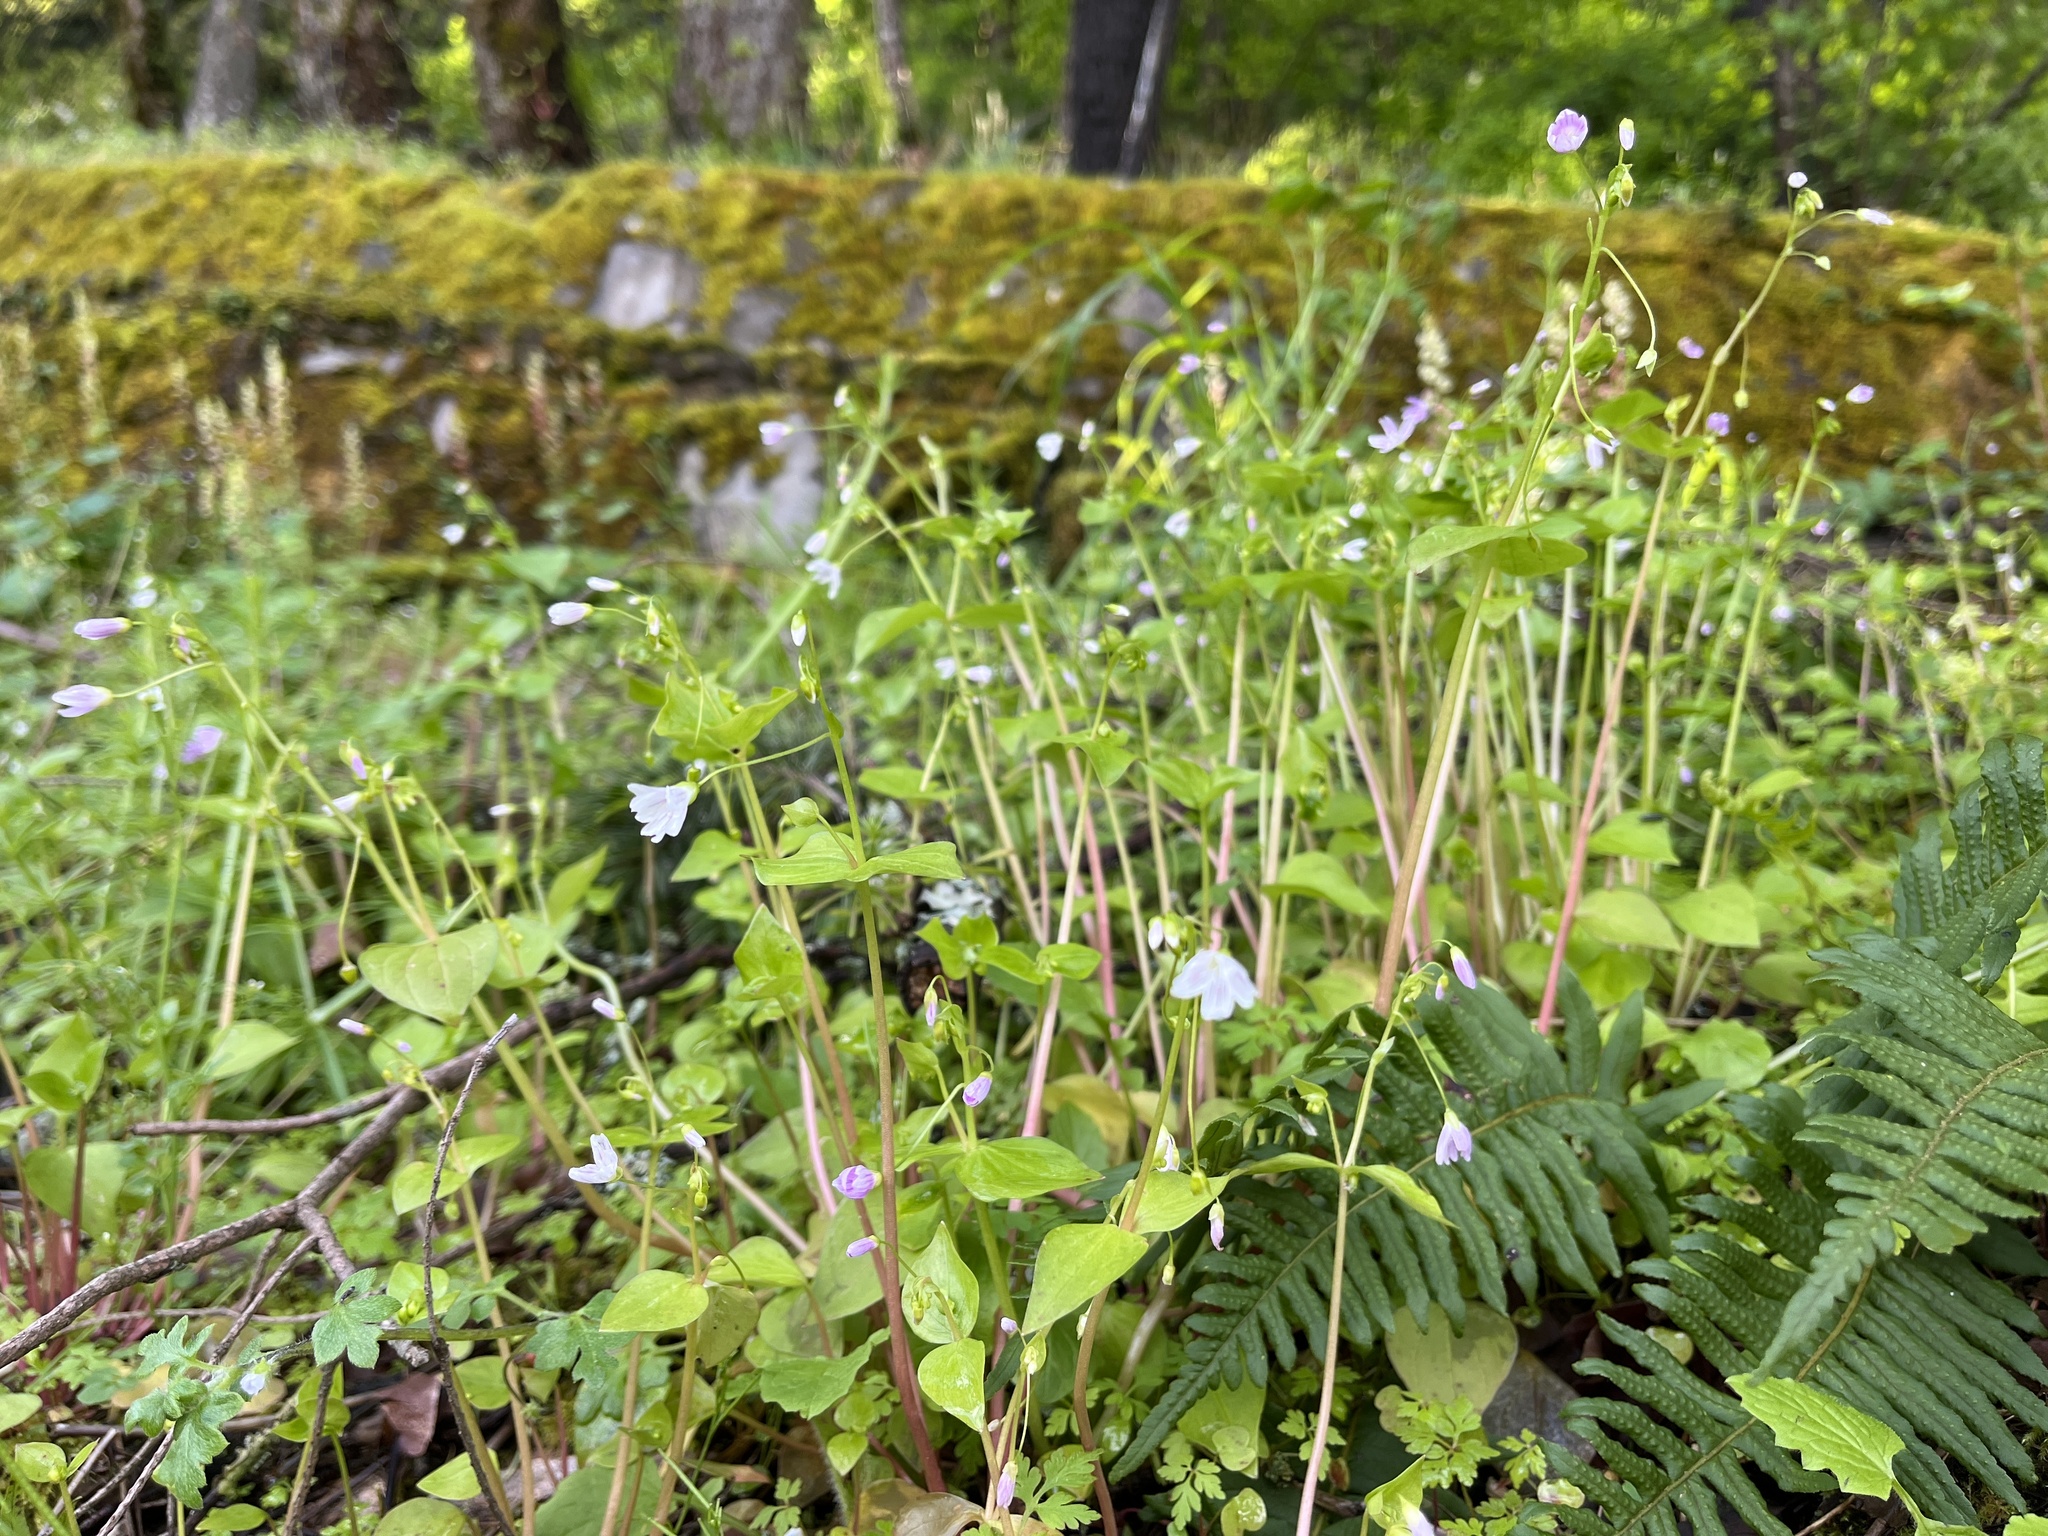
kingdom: Plantae
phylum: Tracheophyta
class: Magnoliopsida
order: Caryophyllales
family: Montiaceae
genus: Claytonia
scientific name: Claytonia sibirica
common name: Pink purslane
